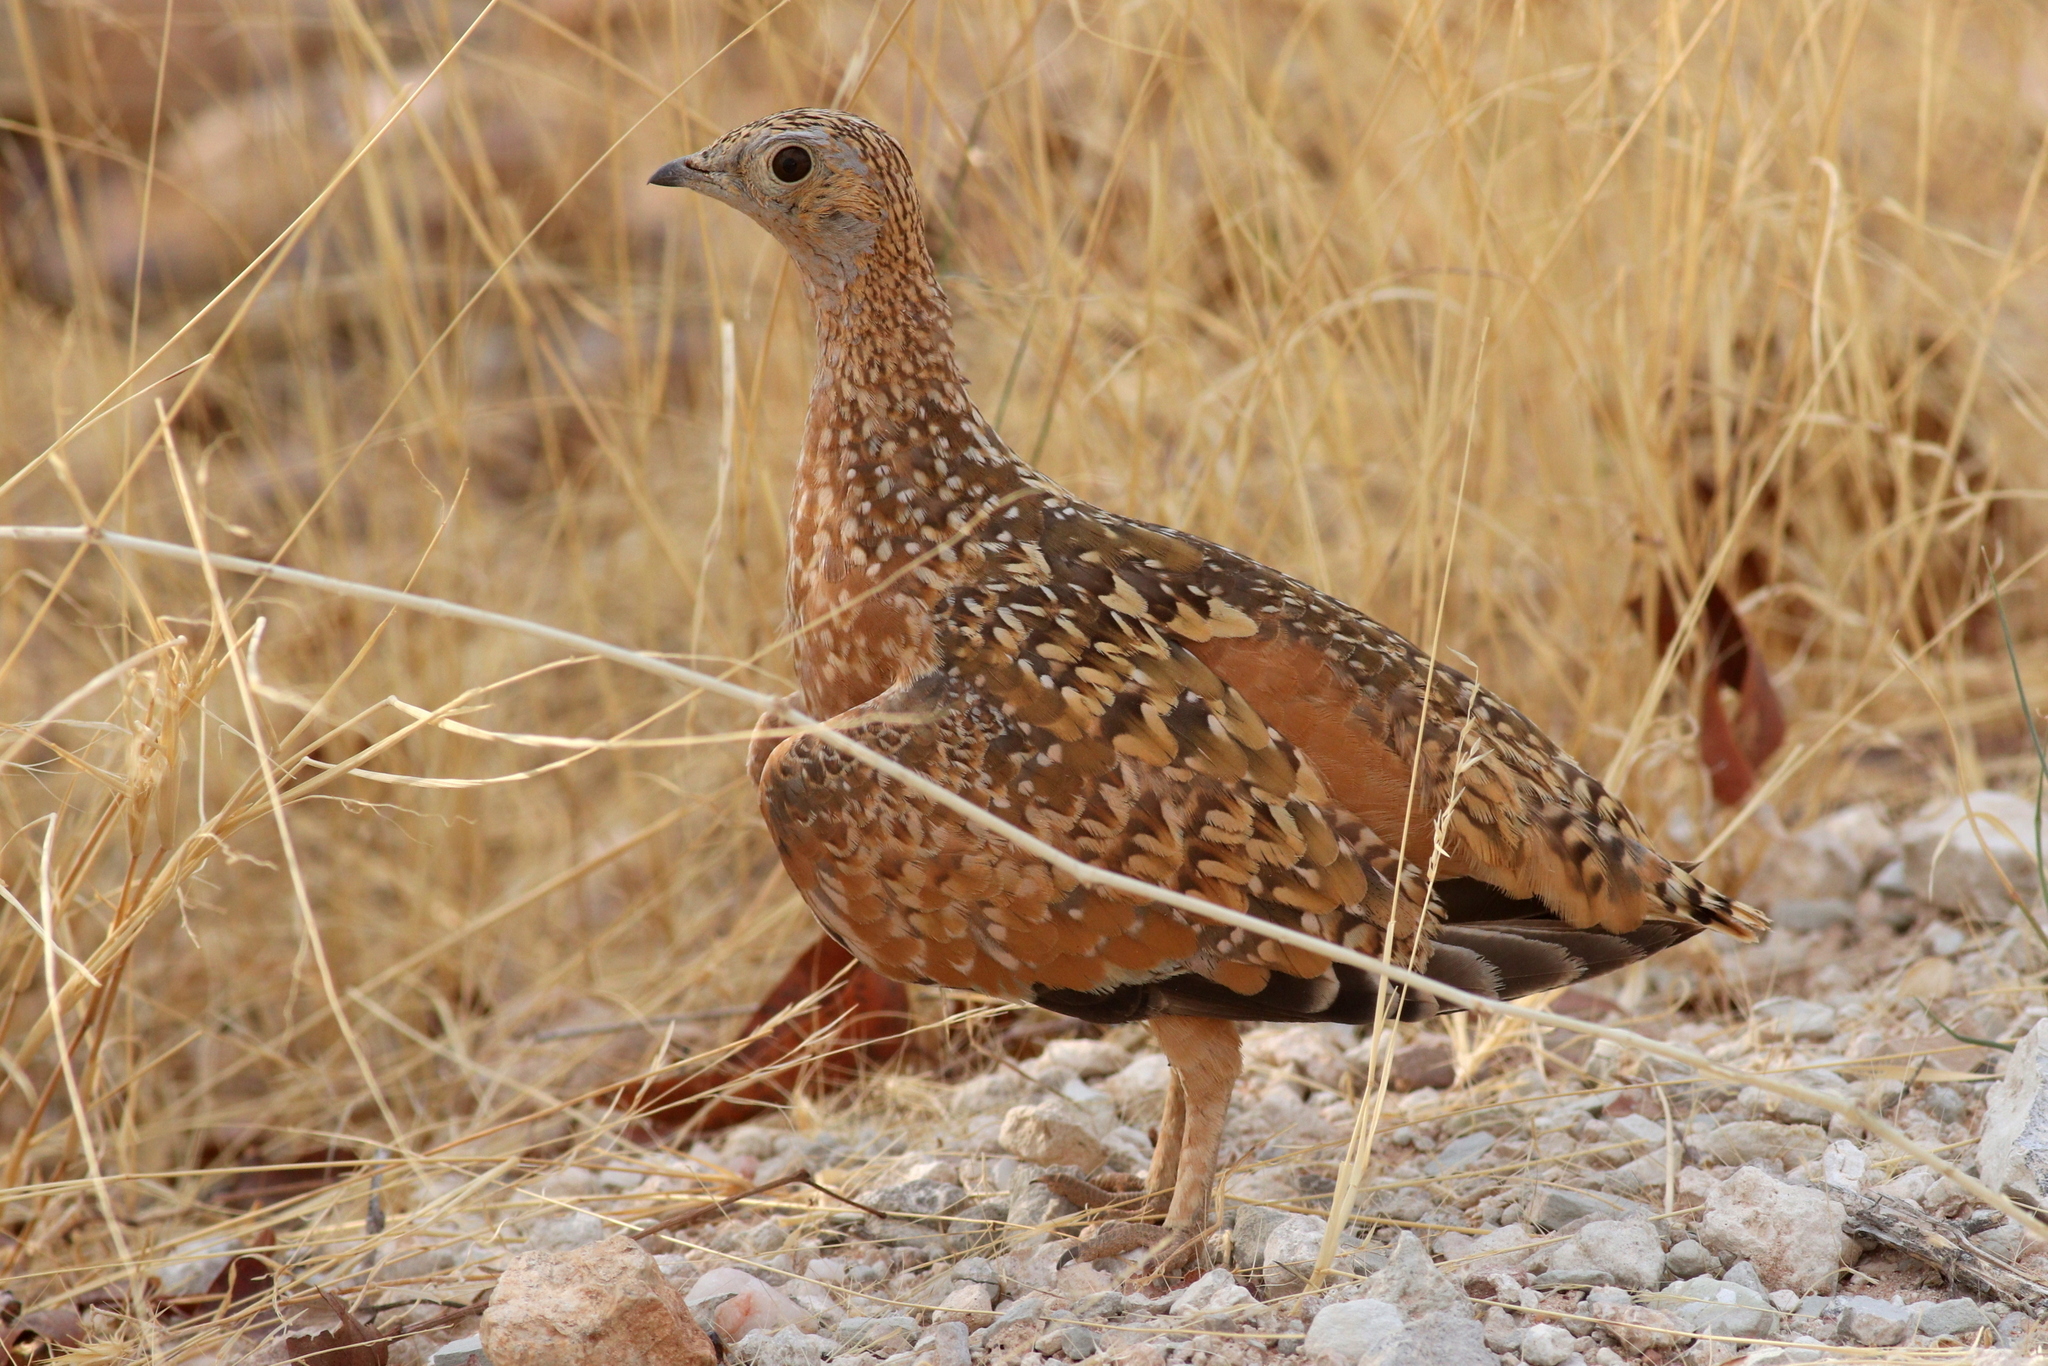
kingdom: Animalia
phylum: Chordata
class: Aves
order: Pteroclidiformes
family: Pteroclididae
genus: Pterocles
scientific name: Pterocles burchelli
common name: Burchell's sandgrouse
